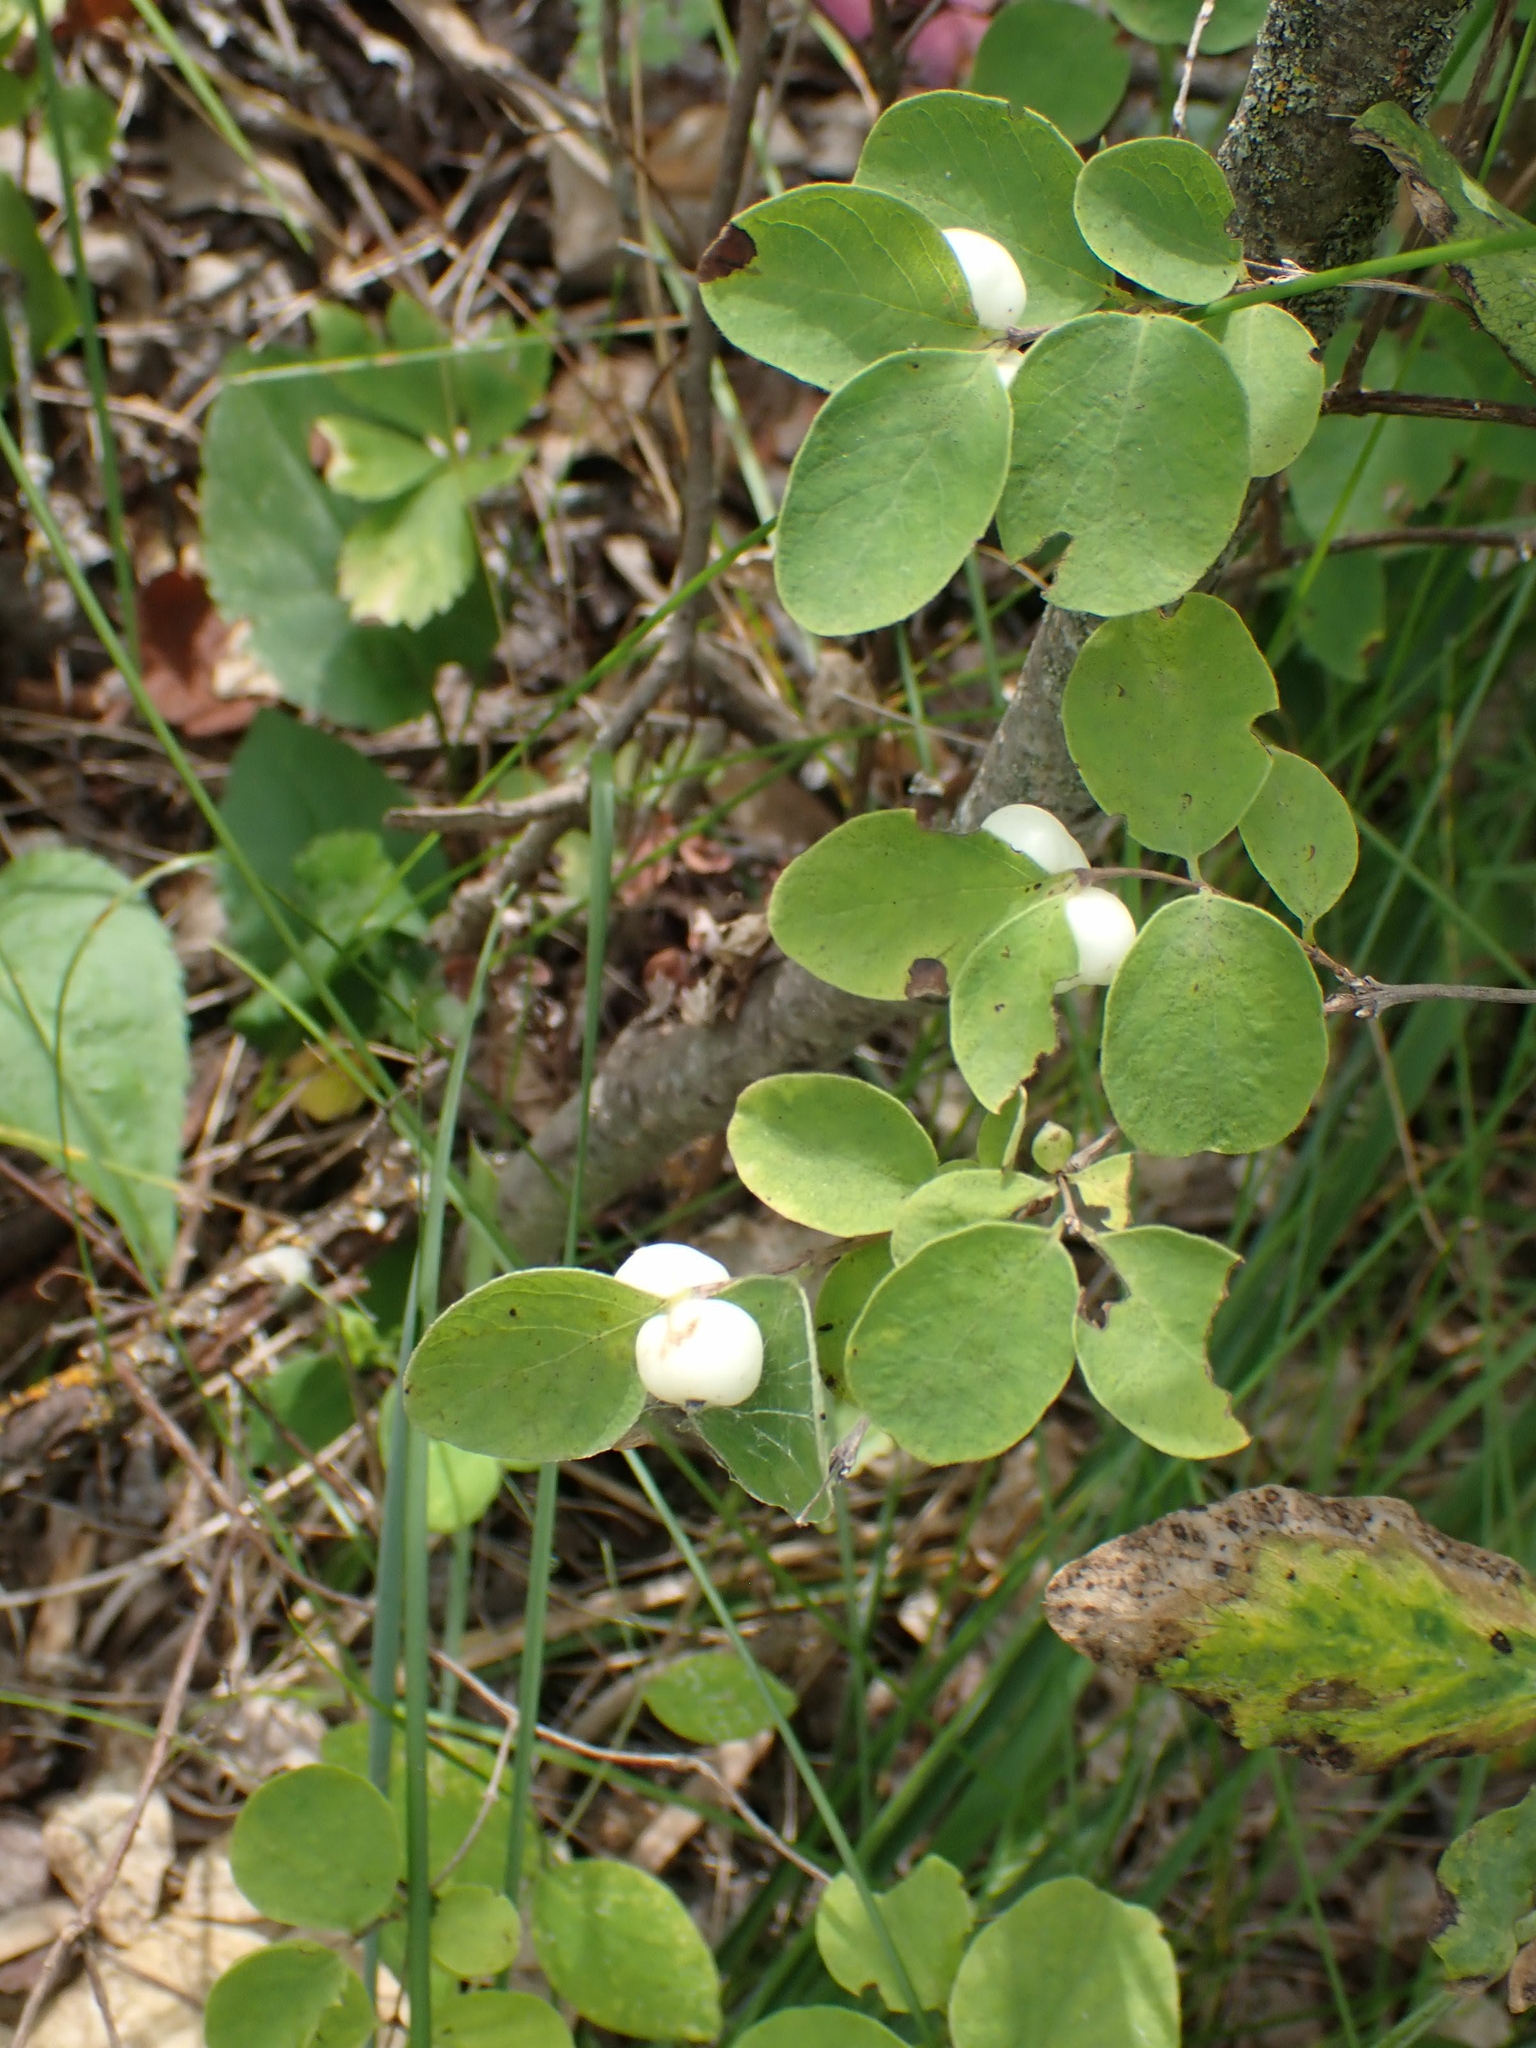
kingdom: Plantae
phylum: Tracheophyta
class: Magnoliopsida
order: Dipsacales
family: Caprifoliaceae
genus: Symphoricarpos
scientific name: Symphoricarpos albus
